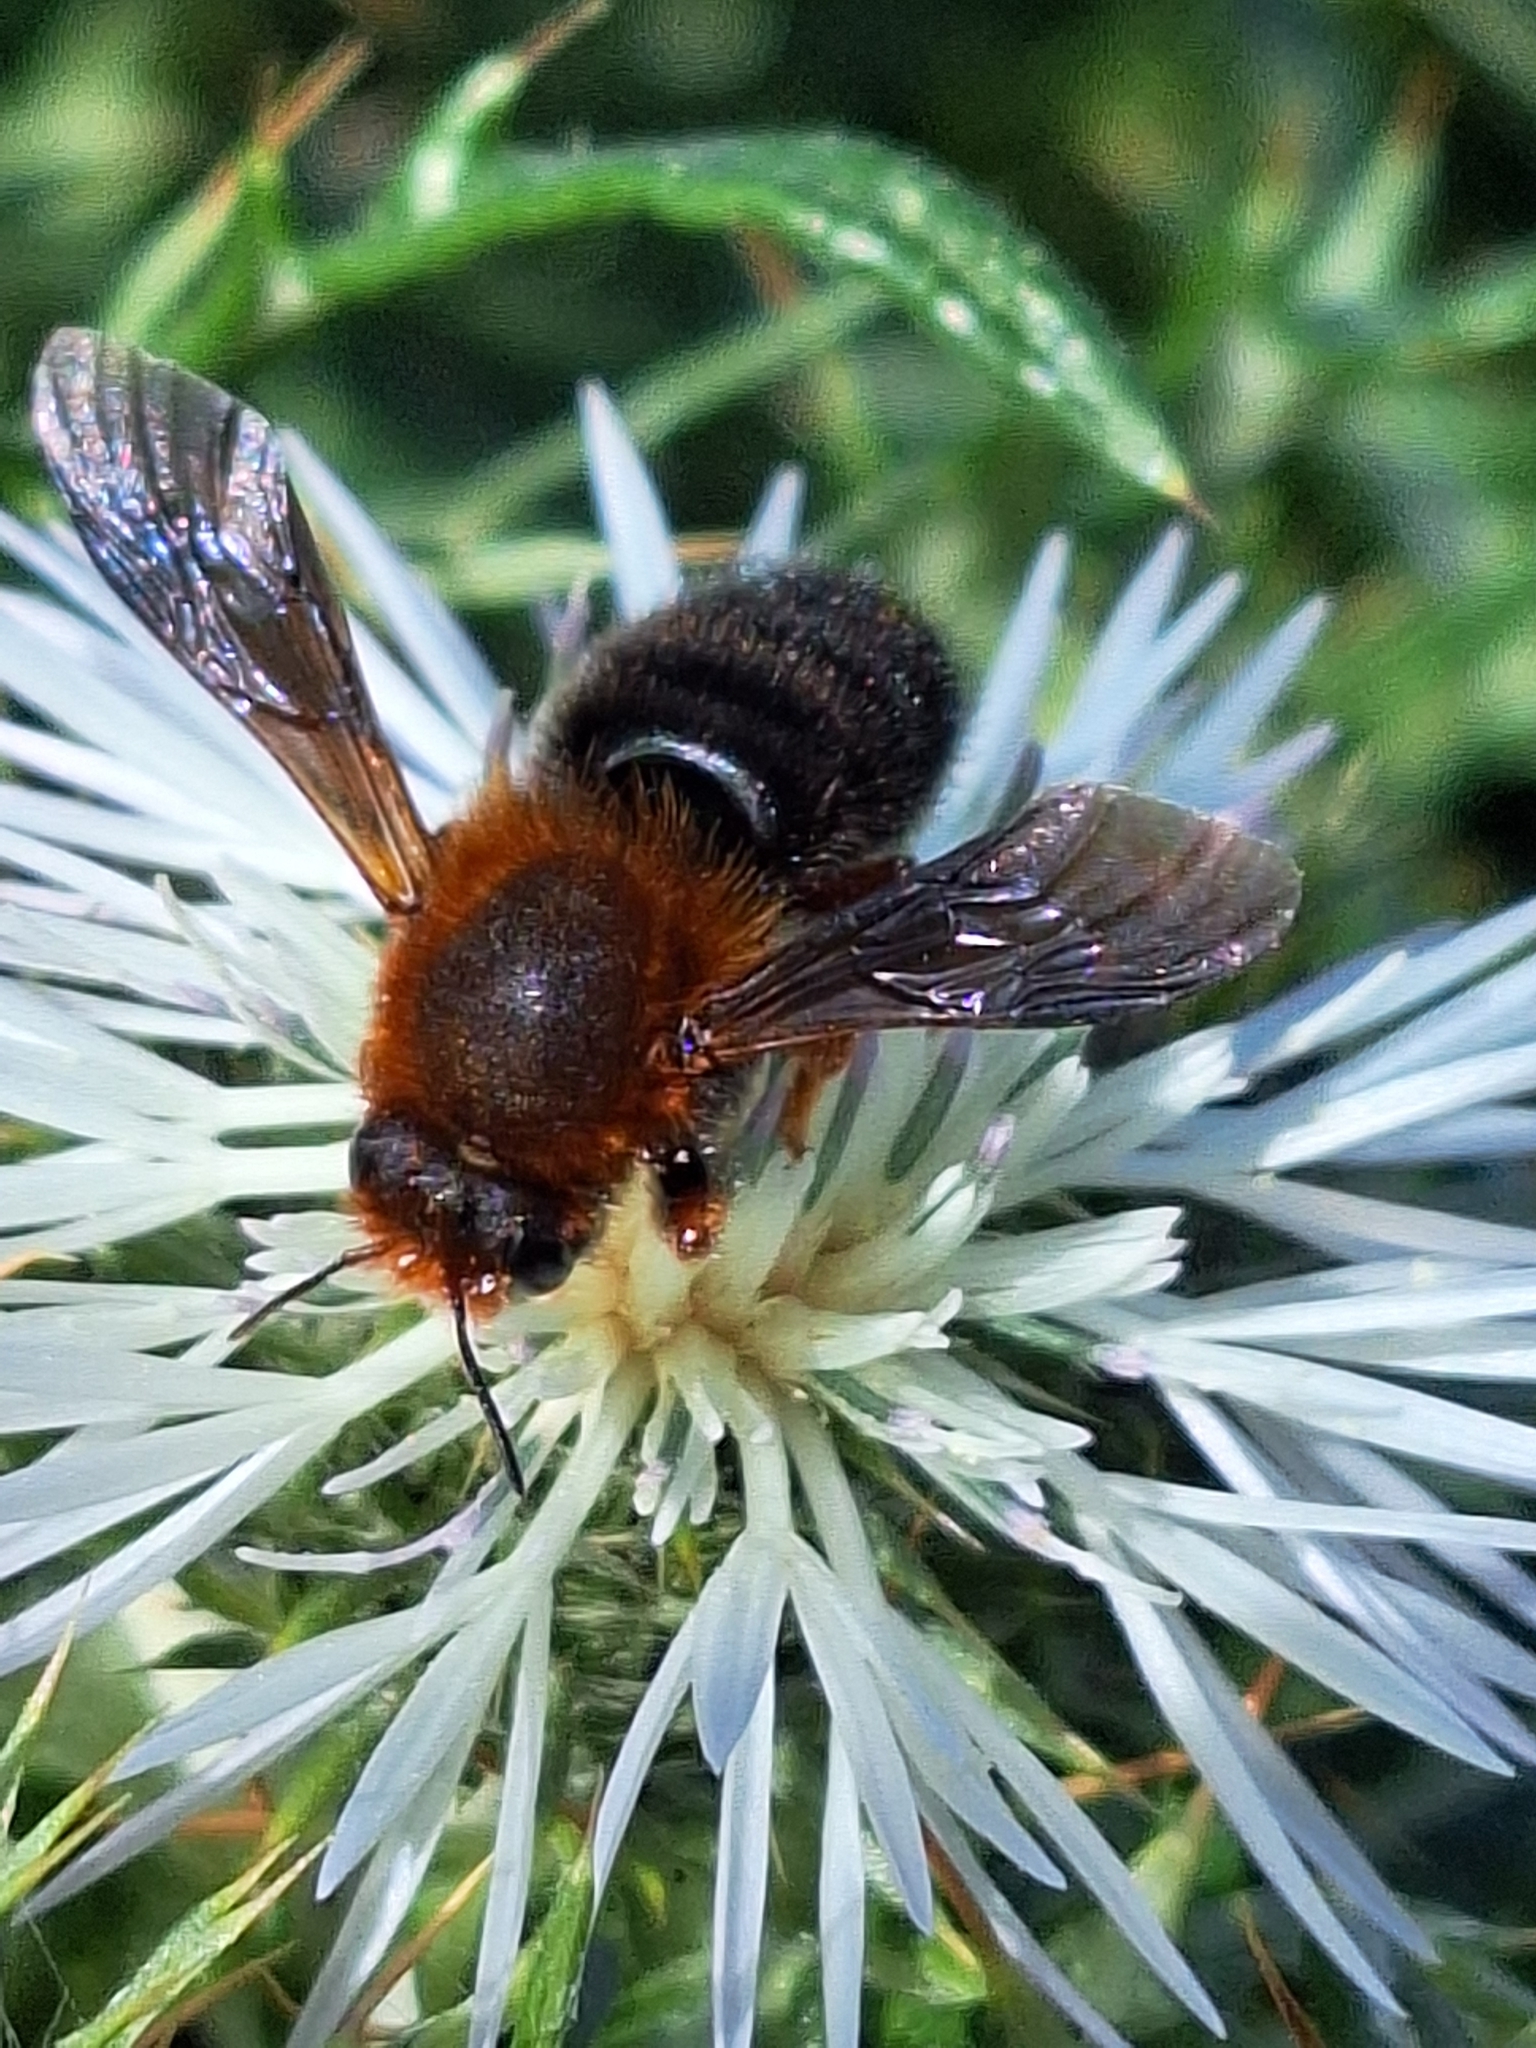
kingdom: Animalia
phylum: Arthropoda
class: Insecta
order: Hymenoptera
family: Megachilidae
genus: Megachile
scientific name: Megachile sicula
